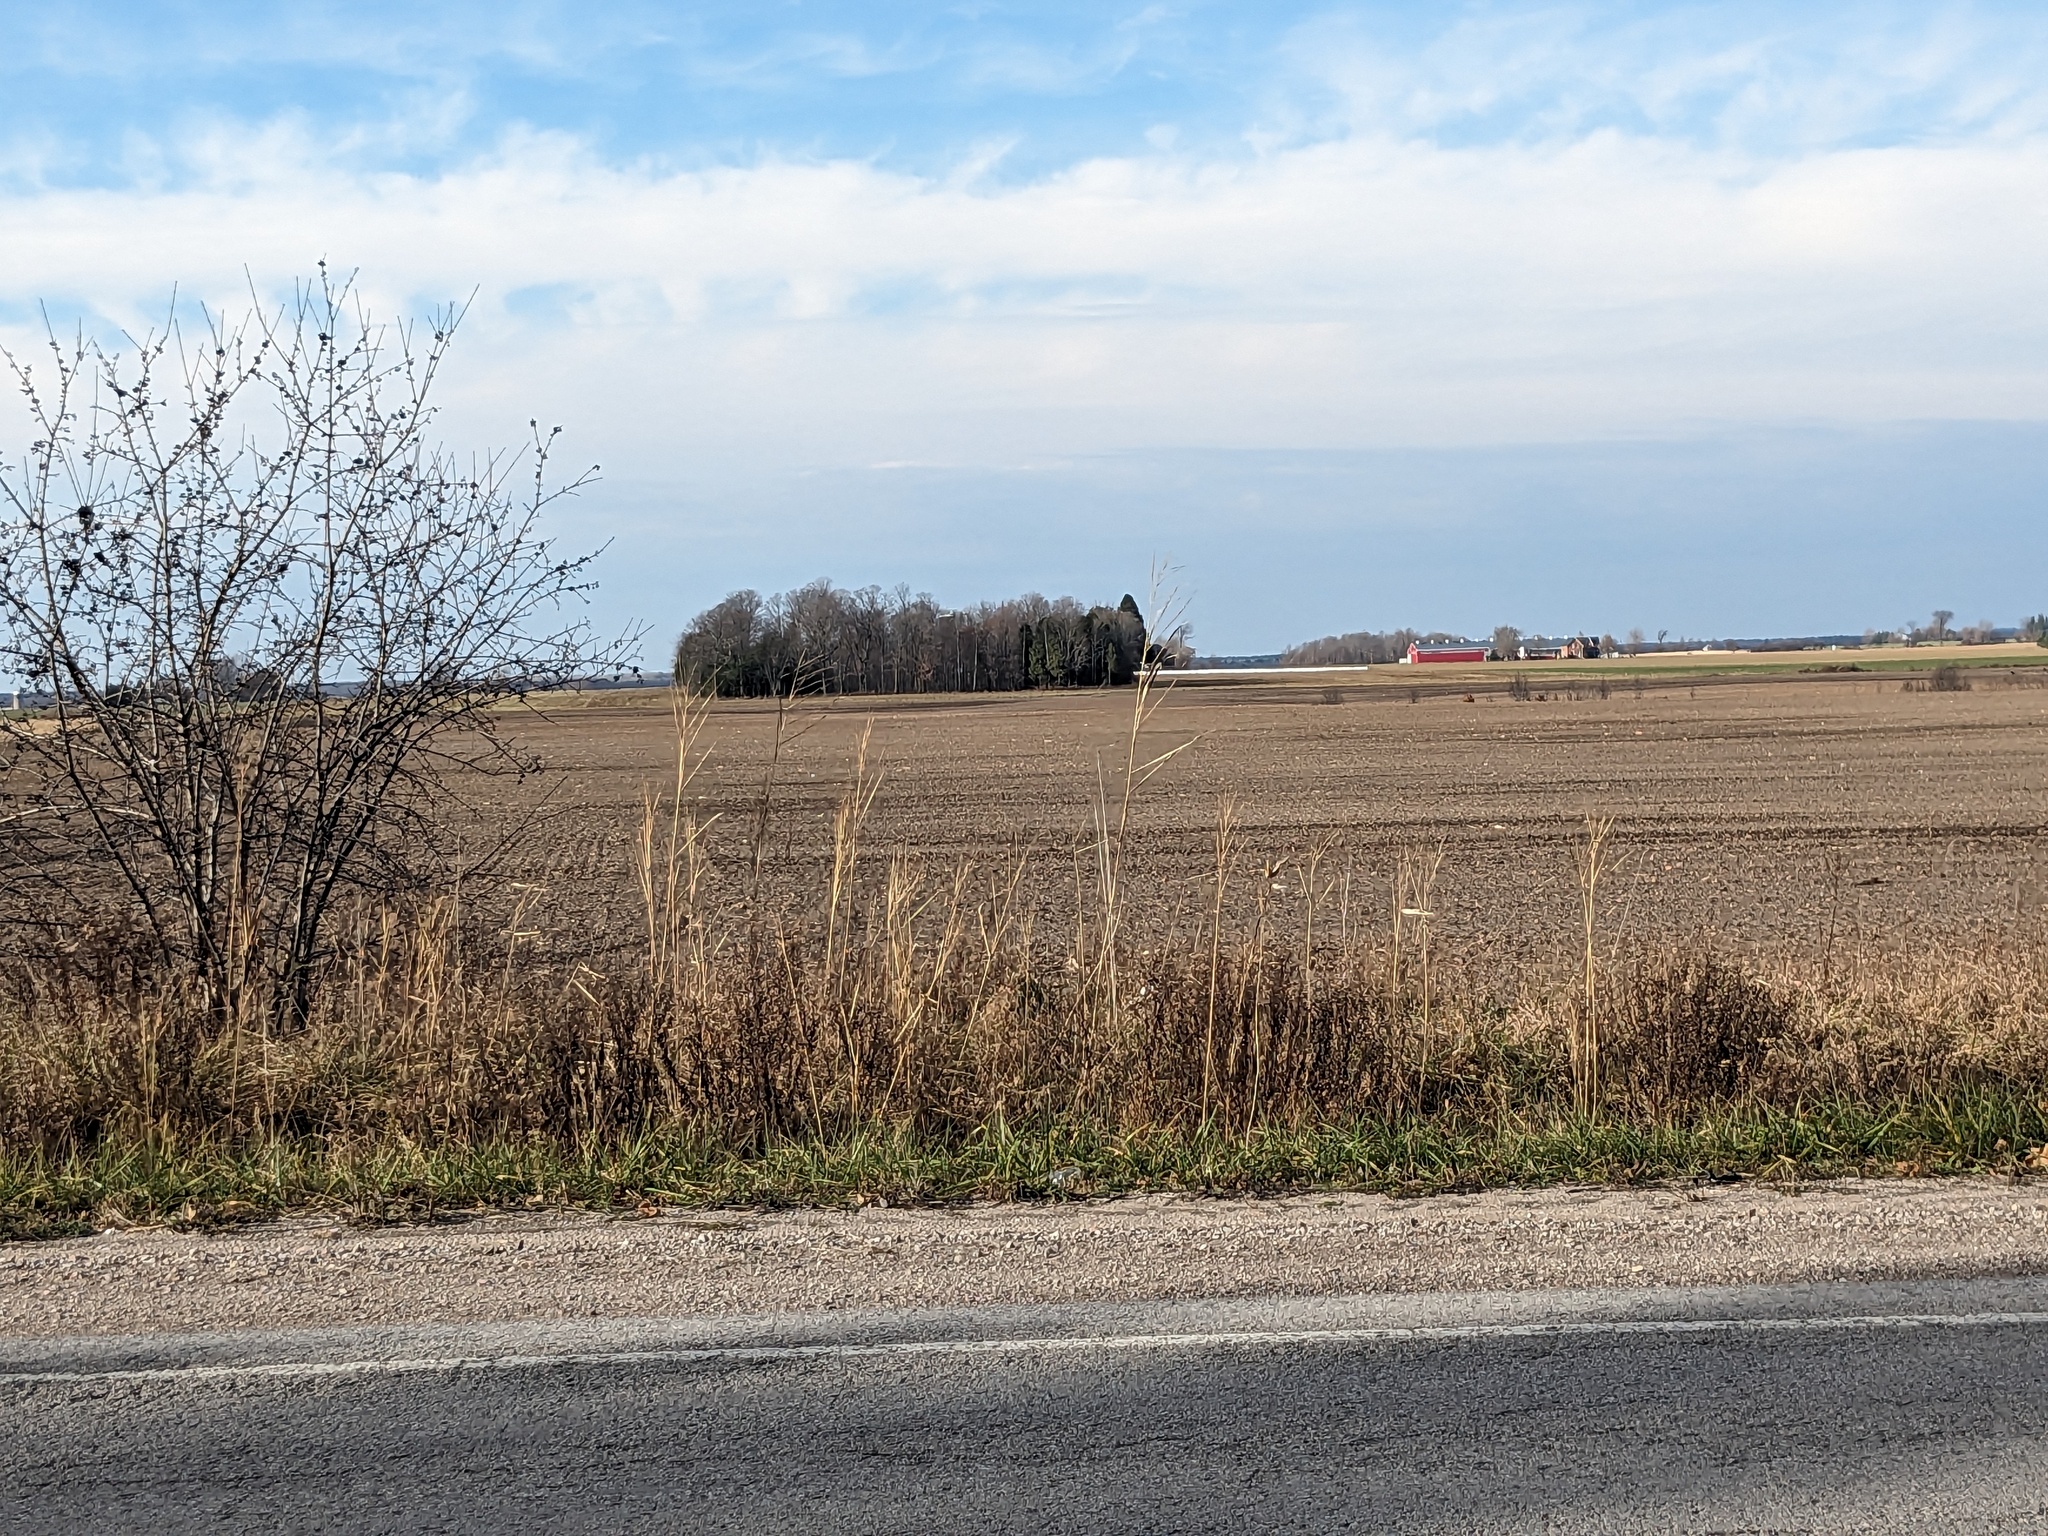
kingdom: Plantae
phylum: Tracheophyta
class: Liliopsida
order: Poales
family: Poaceae
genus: Phragmites
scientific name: Phragmites australis
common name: Common reed
